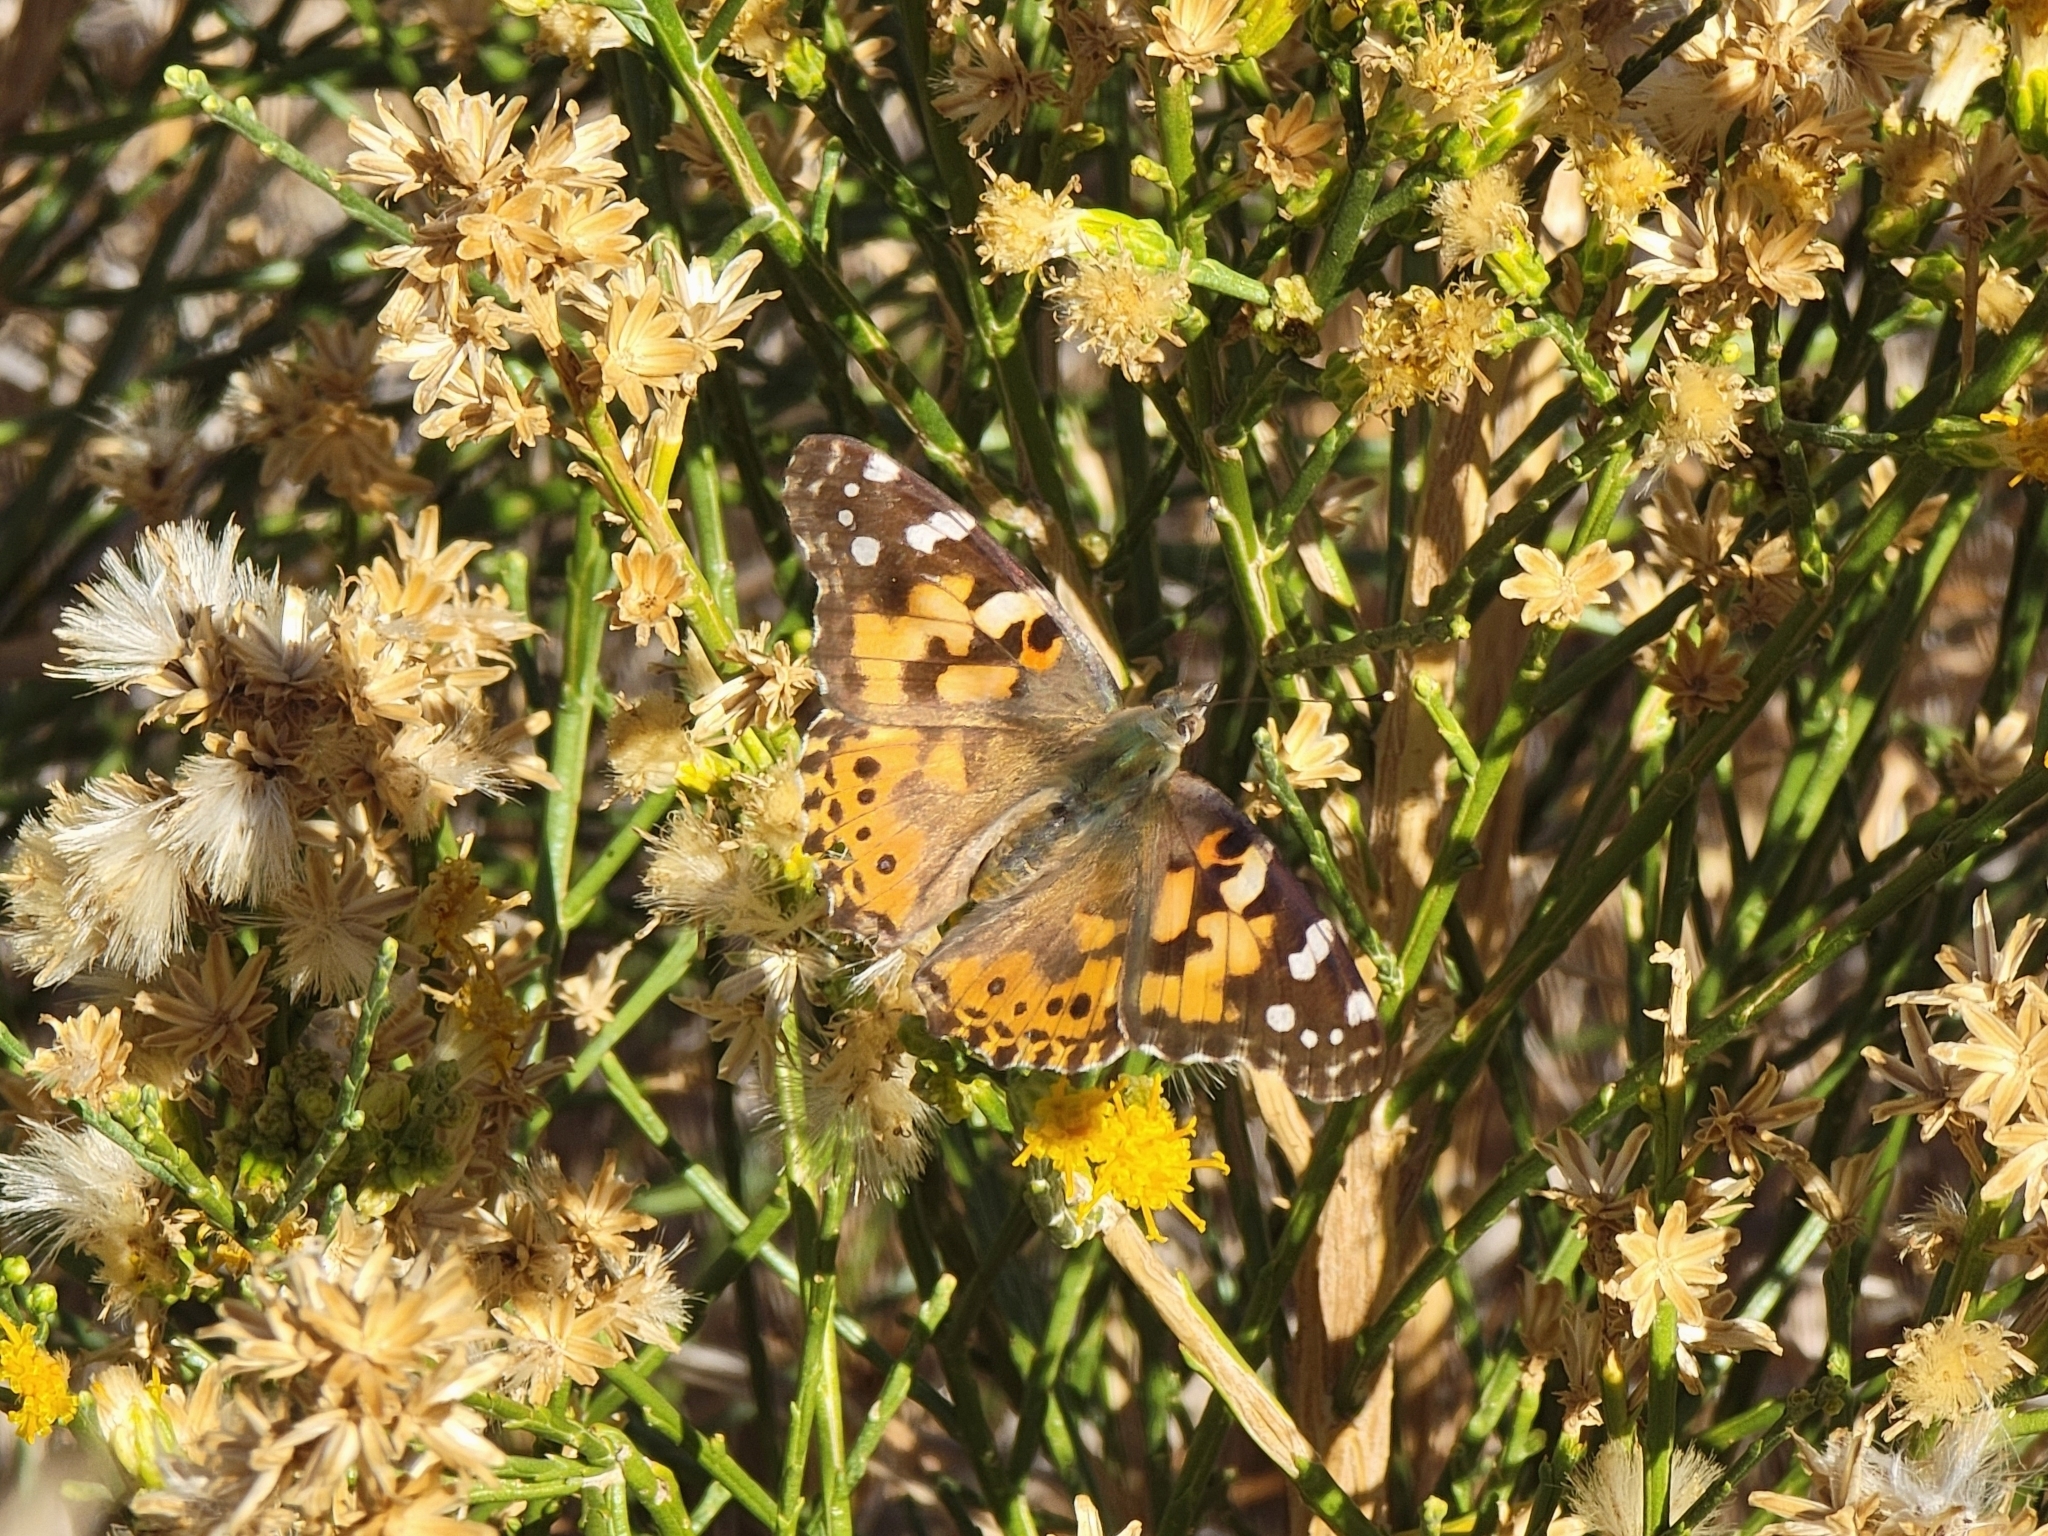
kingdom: Animalia
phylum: Arthropoda
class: Insecta
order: Lepidoptera
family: Nymphalidae
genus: Vanessa
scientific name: Vanessa cardui
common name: Painted lady
